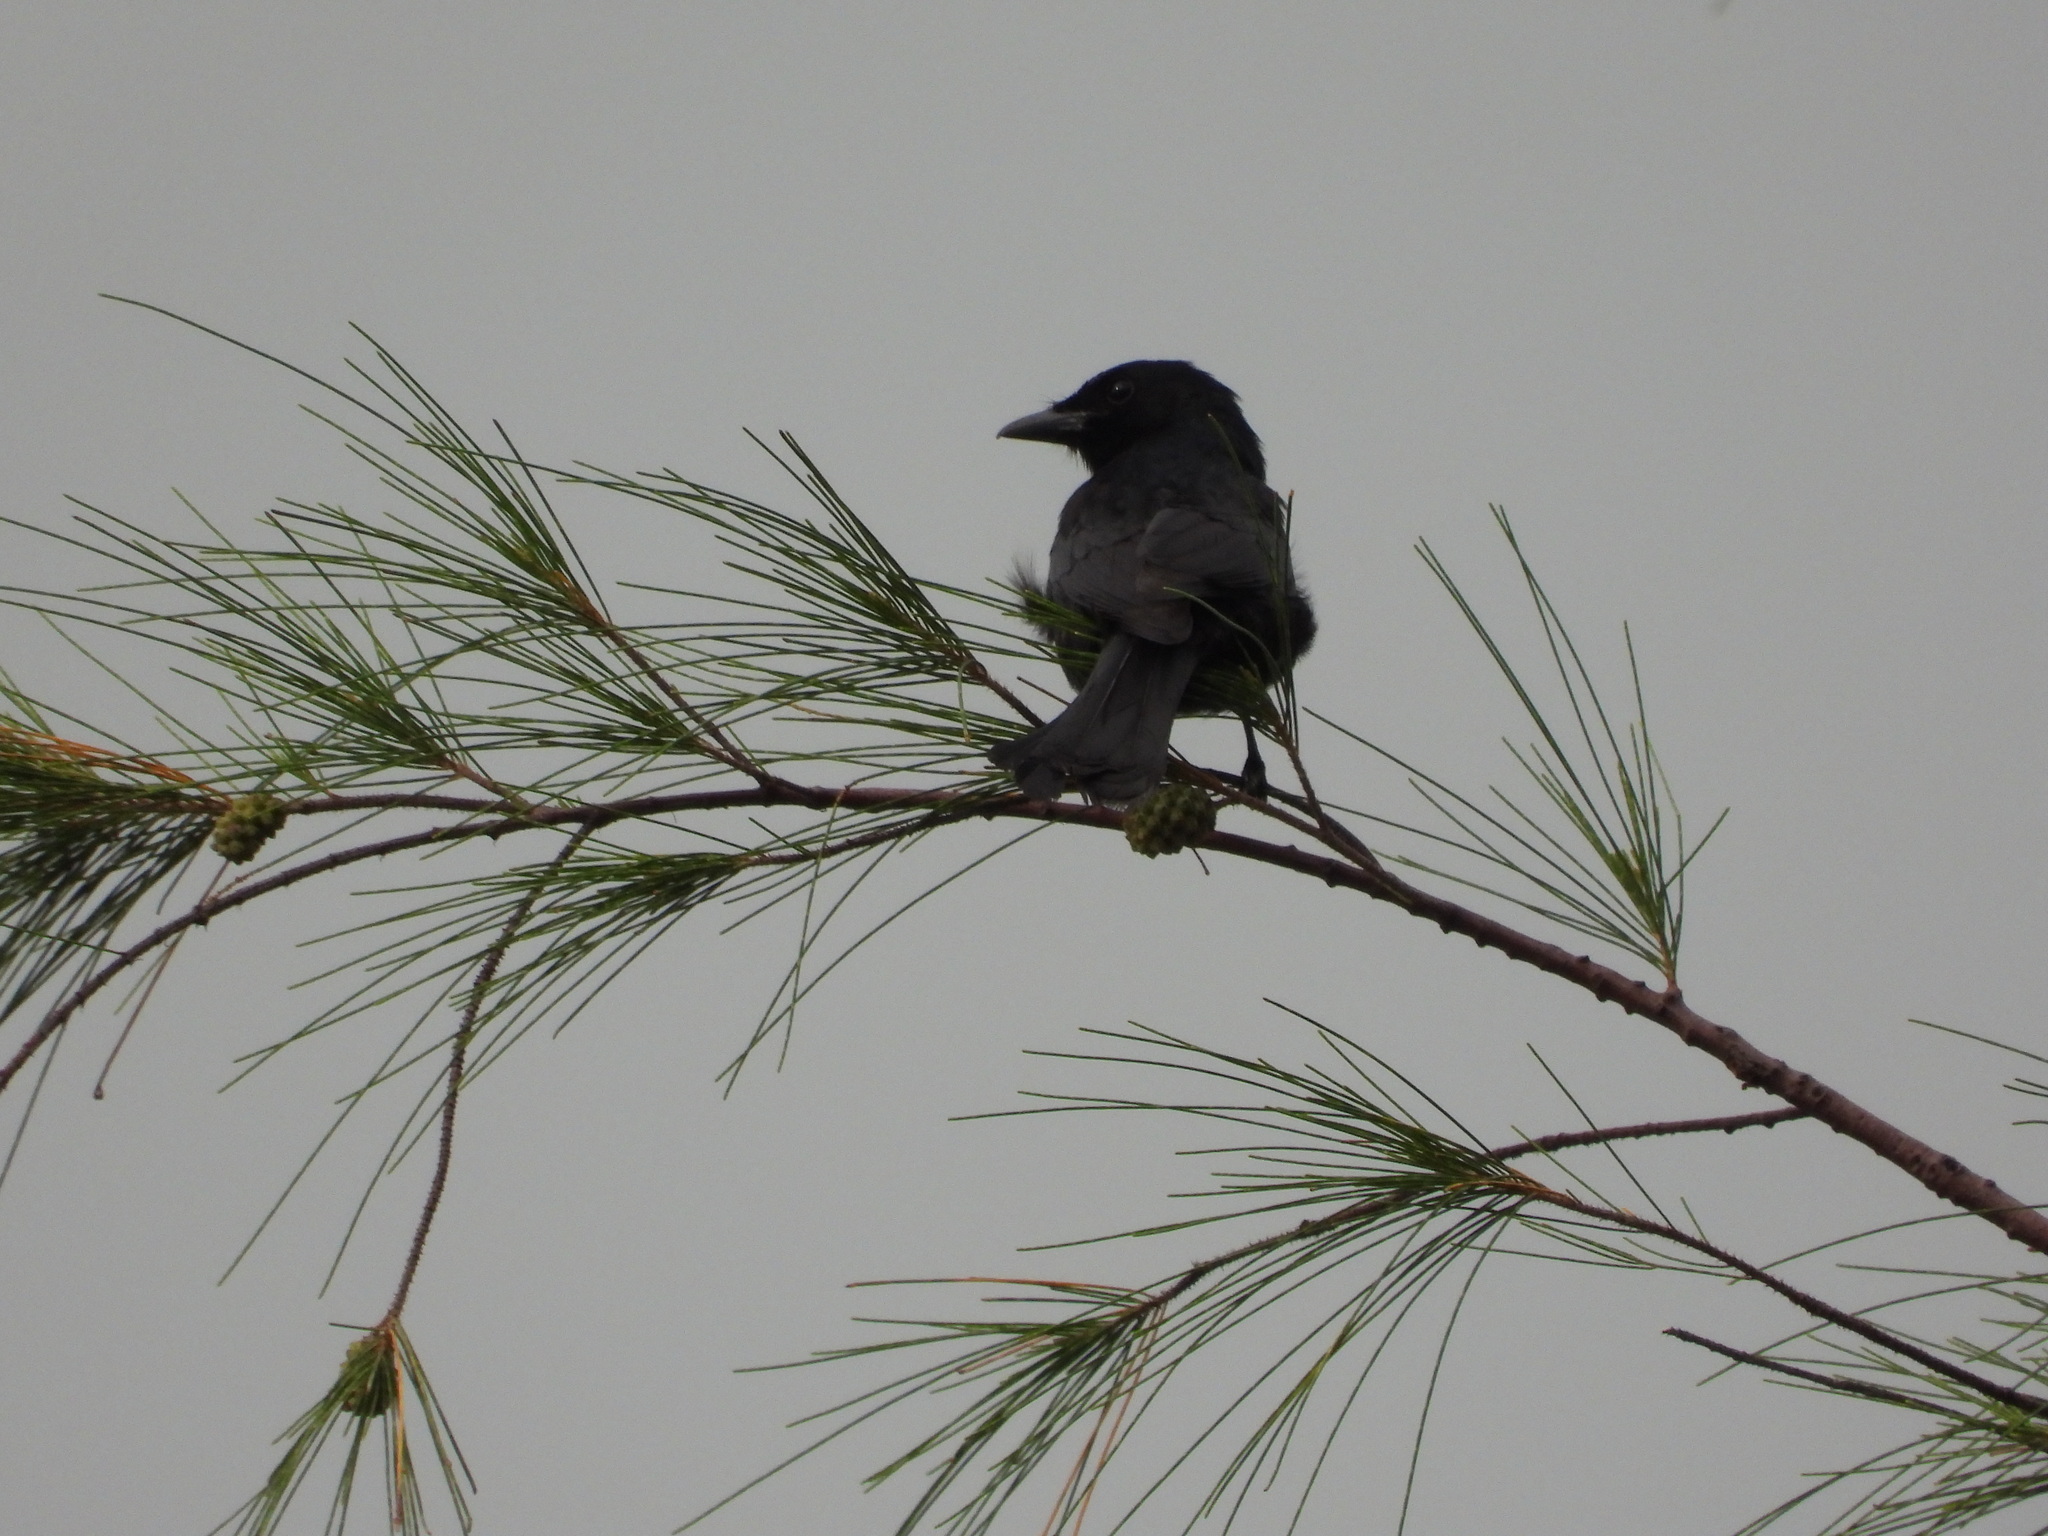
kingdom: Animalia
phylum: Chordata
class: Aves
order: Passeriformes
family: Dicruridae
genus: Dicrurus
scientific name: Dicrurus macrocercus
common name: Black drongo
